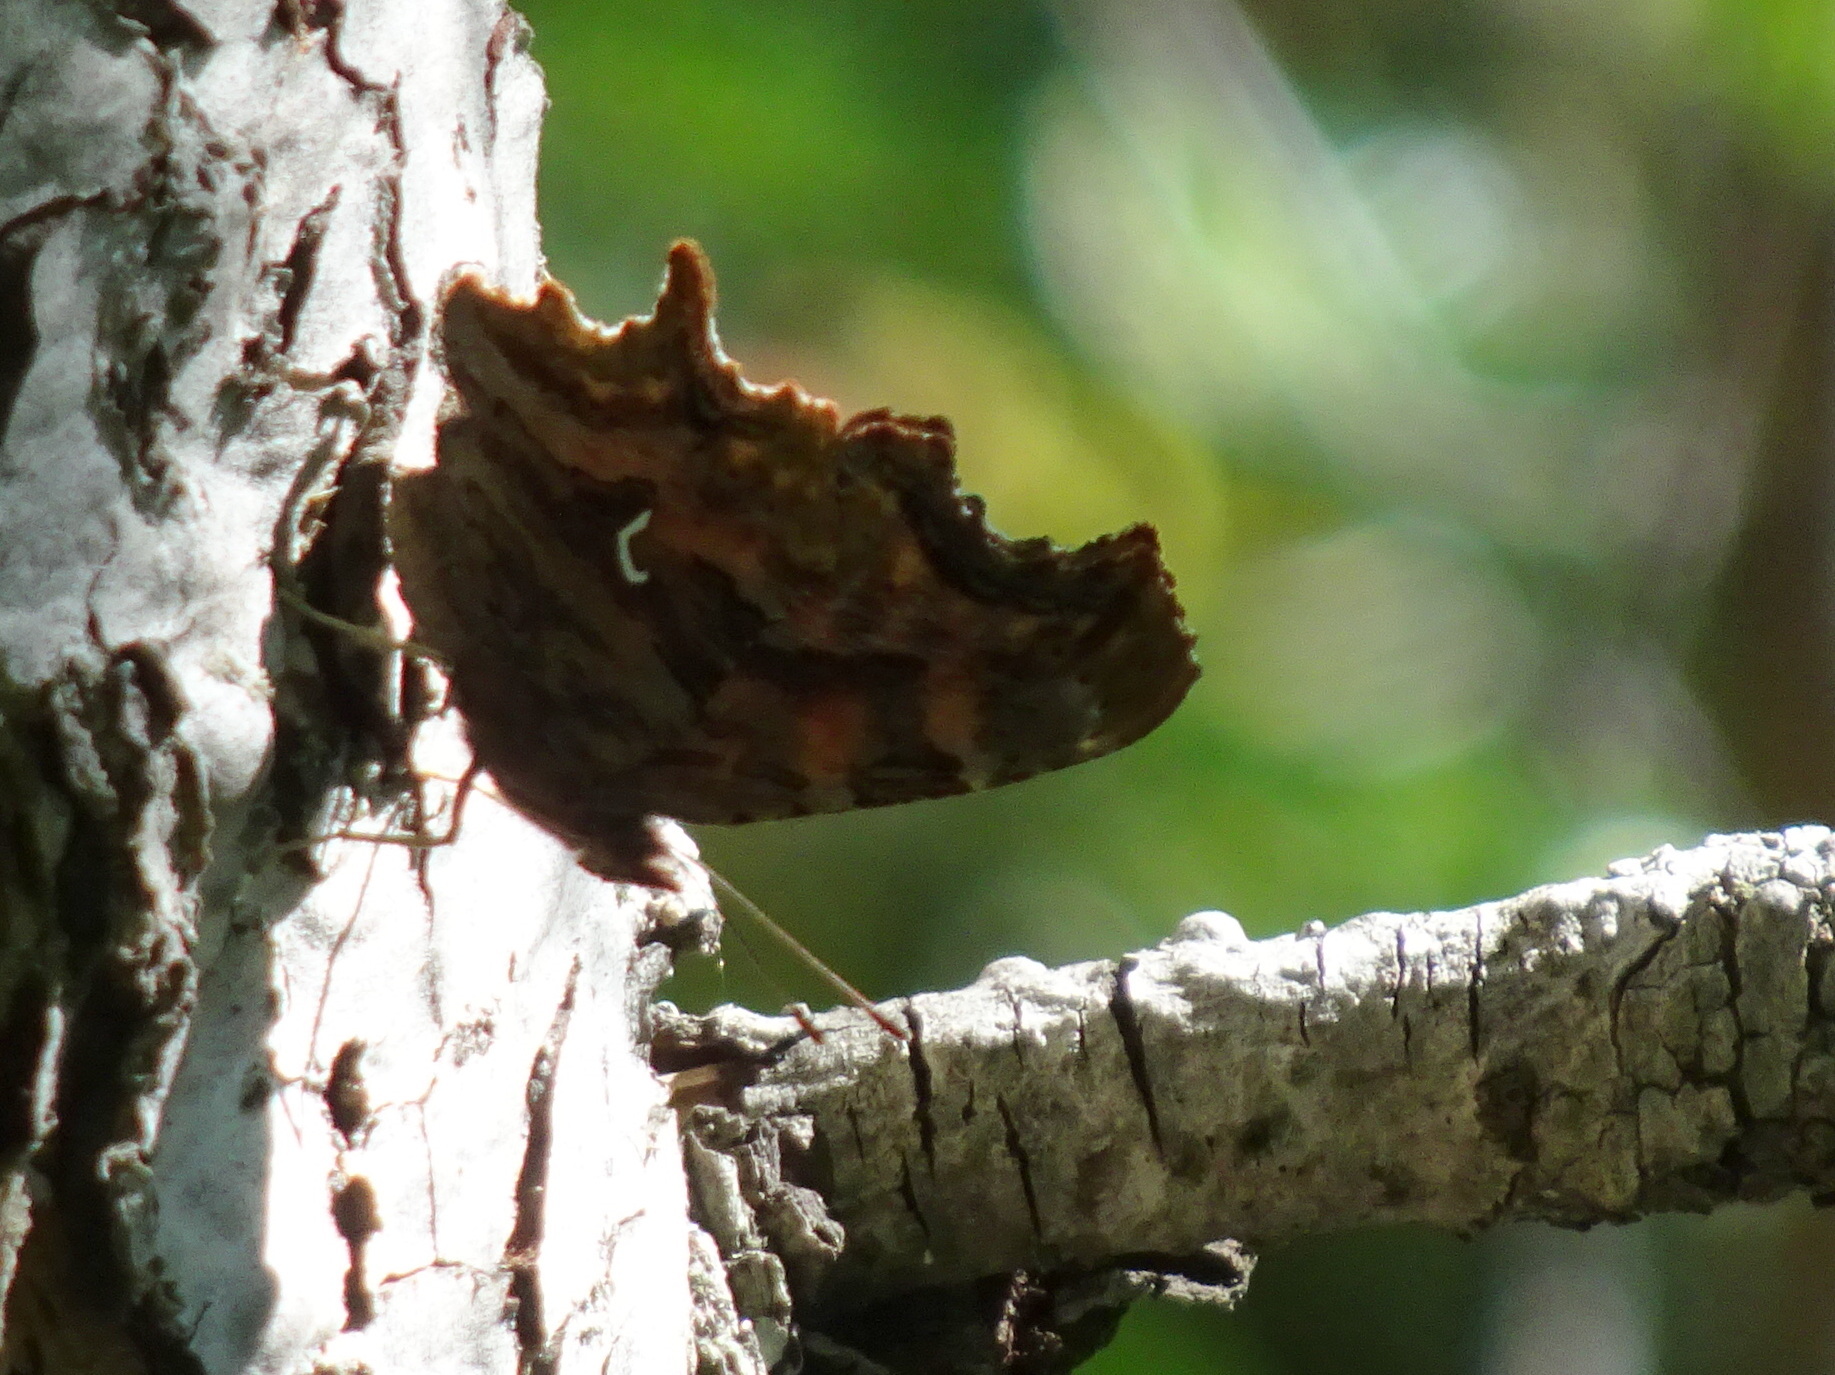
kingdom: Animalia
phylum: Arthropoda
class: Insecta
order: Lepidoptera
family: Nymphalidae
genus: Polygonia
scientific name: Polygonia satyrus
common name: Satyr angle wing
